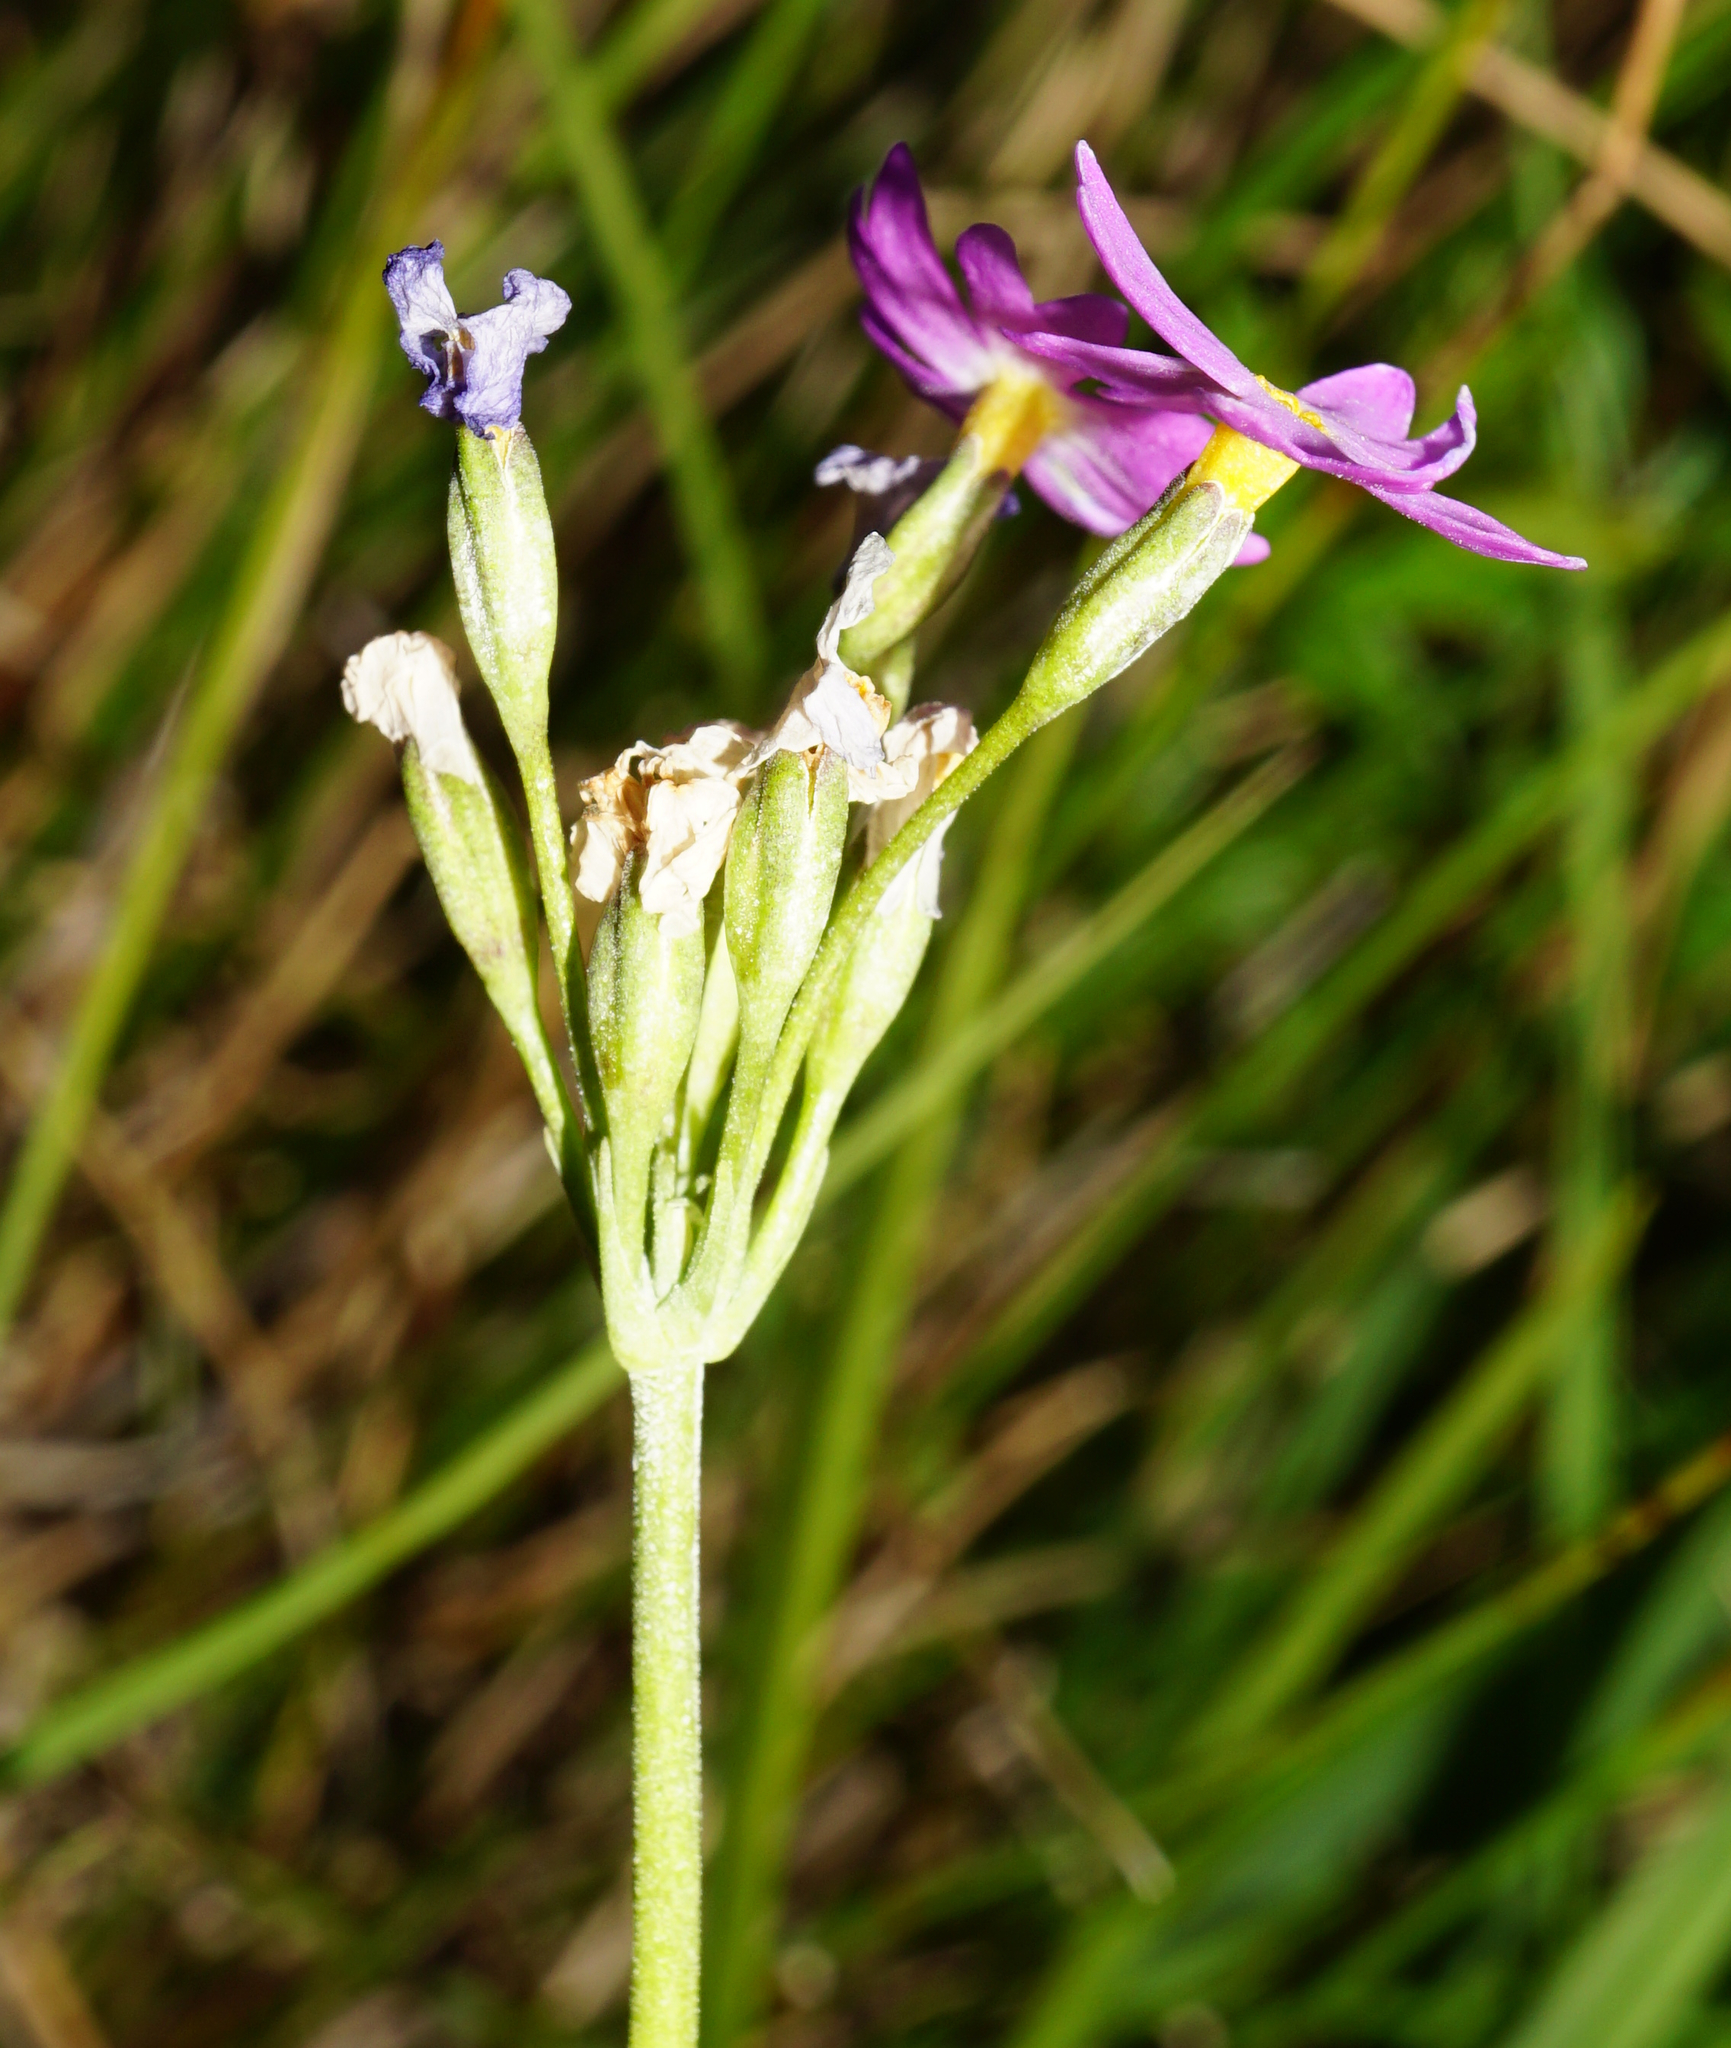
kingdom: Plantae
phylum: Tracheophyta
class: Magnoliopsida
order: Ericales
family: Primulaceae
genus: Primula
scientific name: Primula farinosa
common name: Bird's-eye primrose
